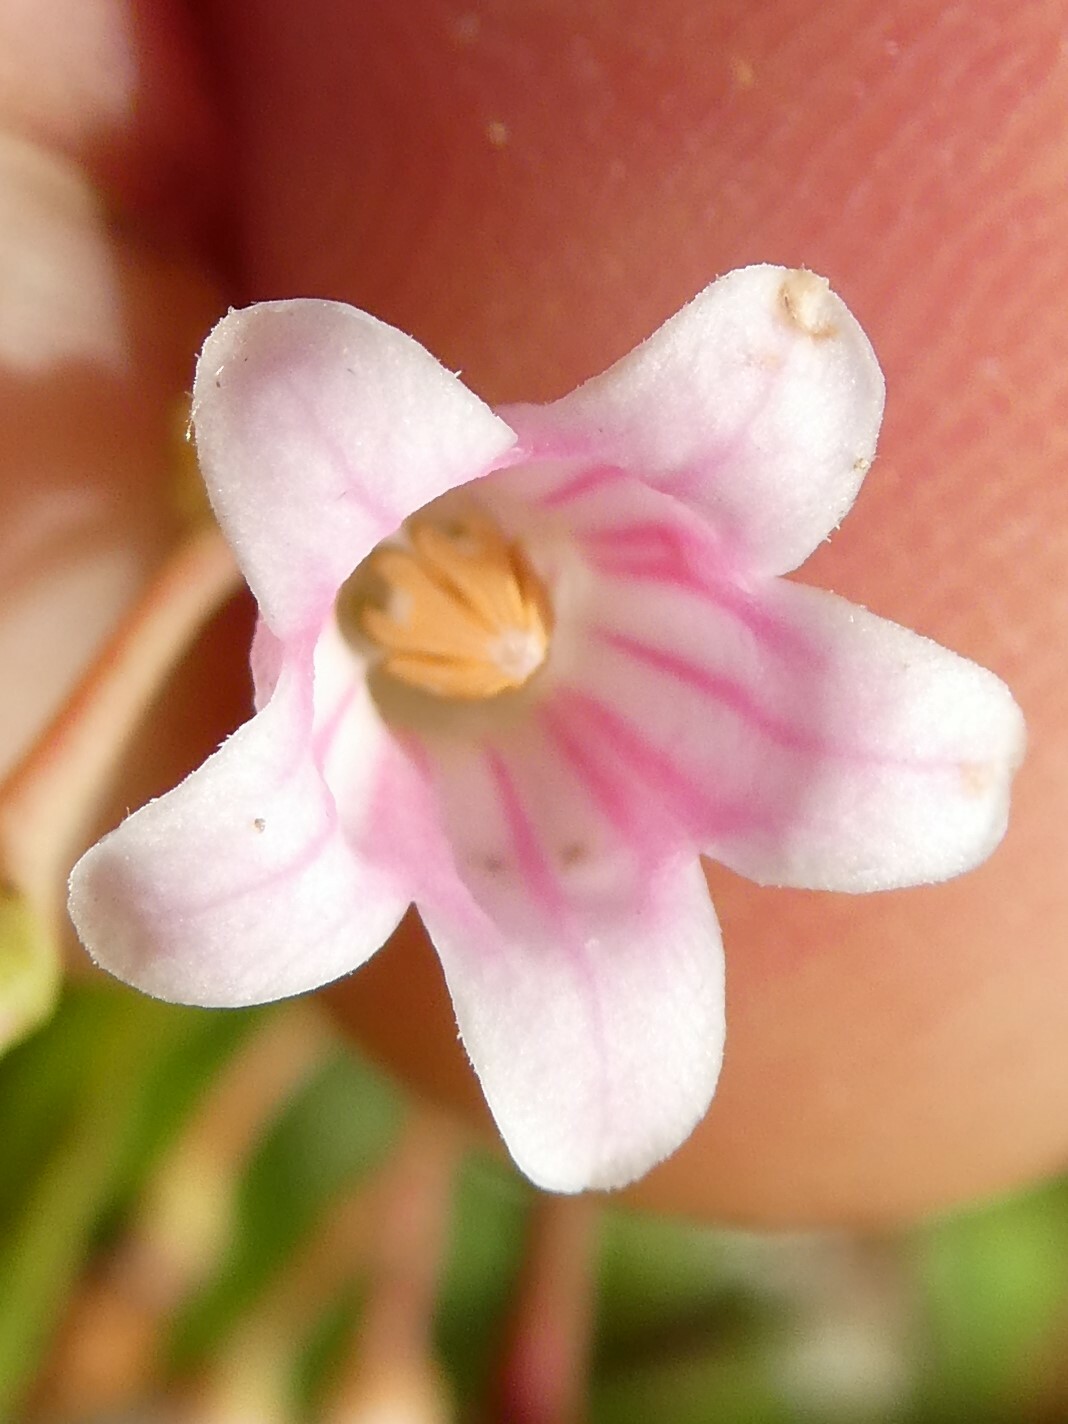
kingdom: Plantae
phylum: Tracheophyta
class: Magnoliopsida
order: Gentianales
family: Apocynaceae
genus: Apocynum
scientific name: Apocynum androsaemifolium
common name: Spreading dogbane
